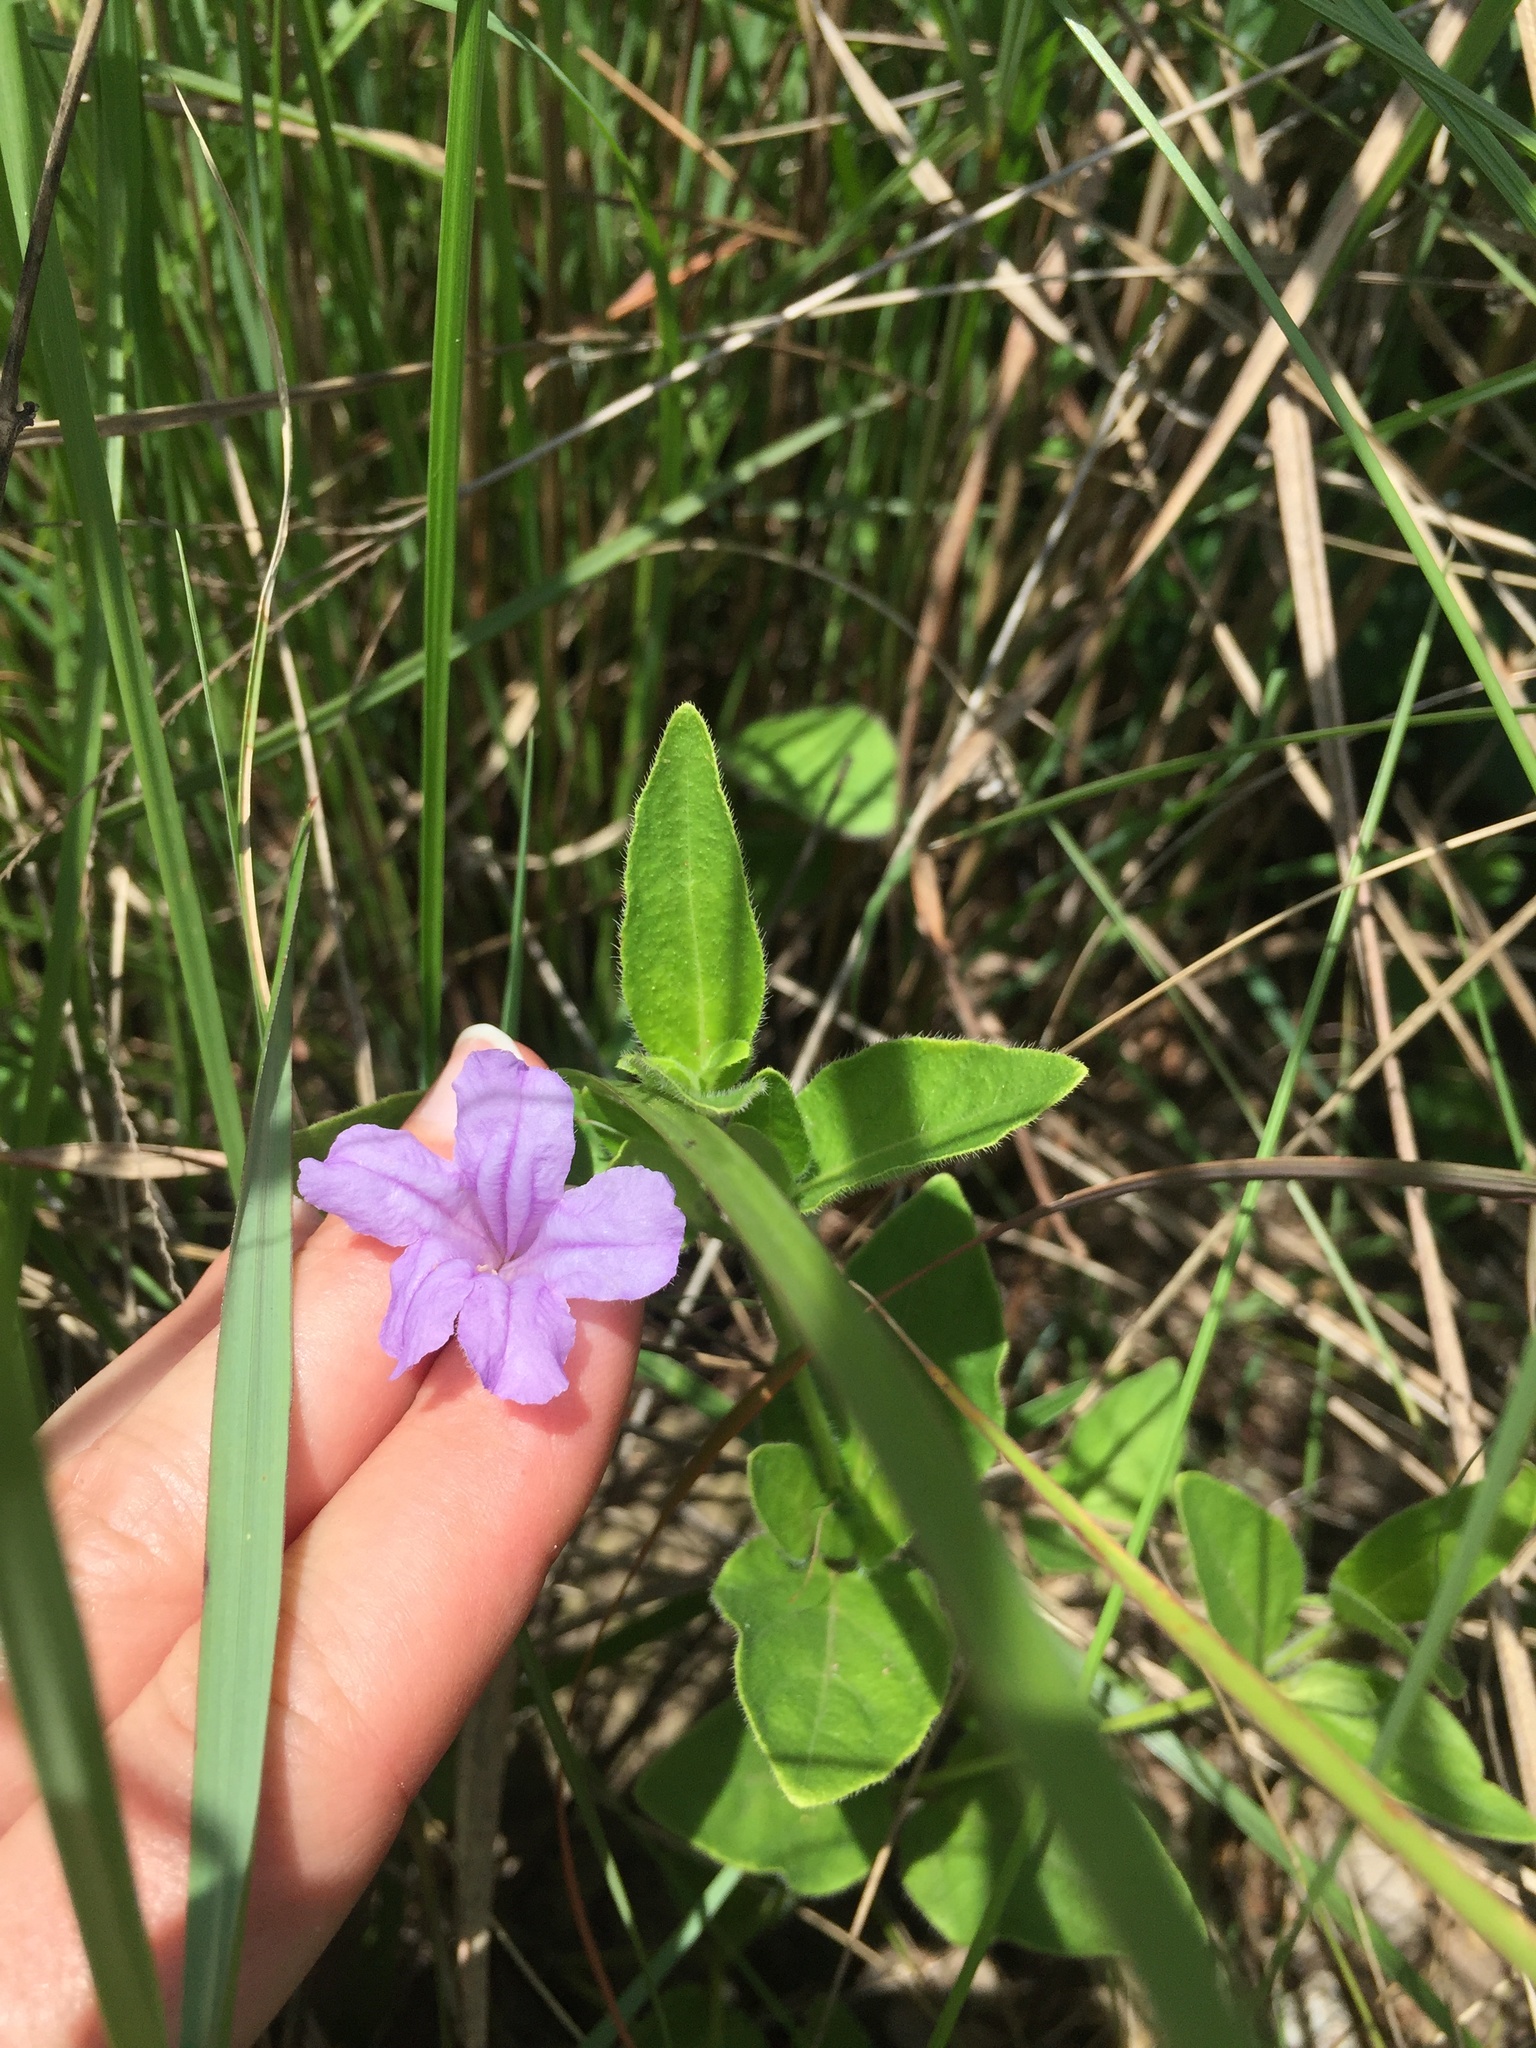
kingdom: Plantae
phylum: Tracheophyta
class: Magnoliopsida
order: Lamiales
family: Acanthaceae
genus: Ruellia
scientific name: Ruellia cordata
